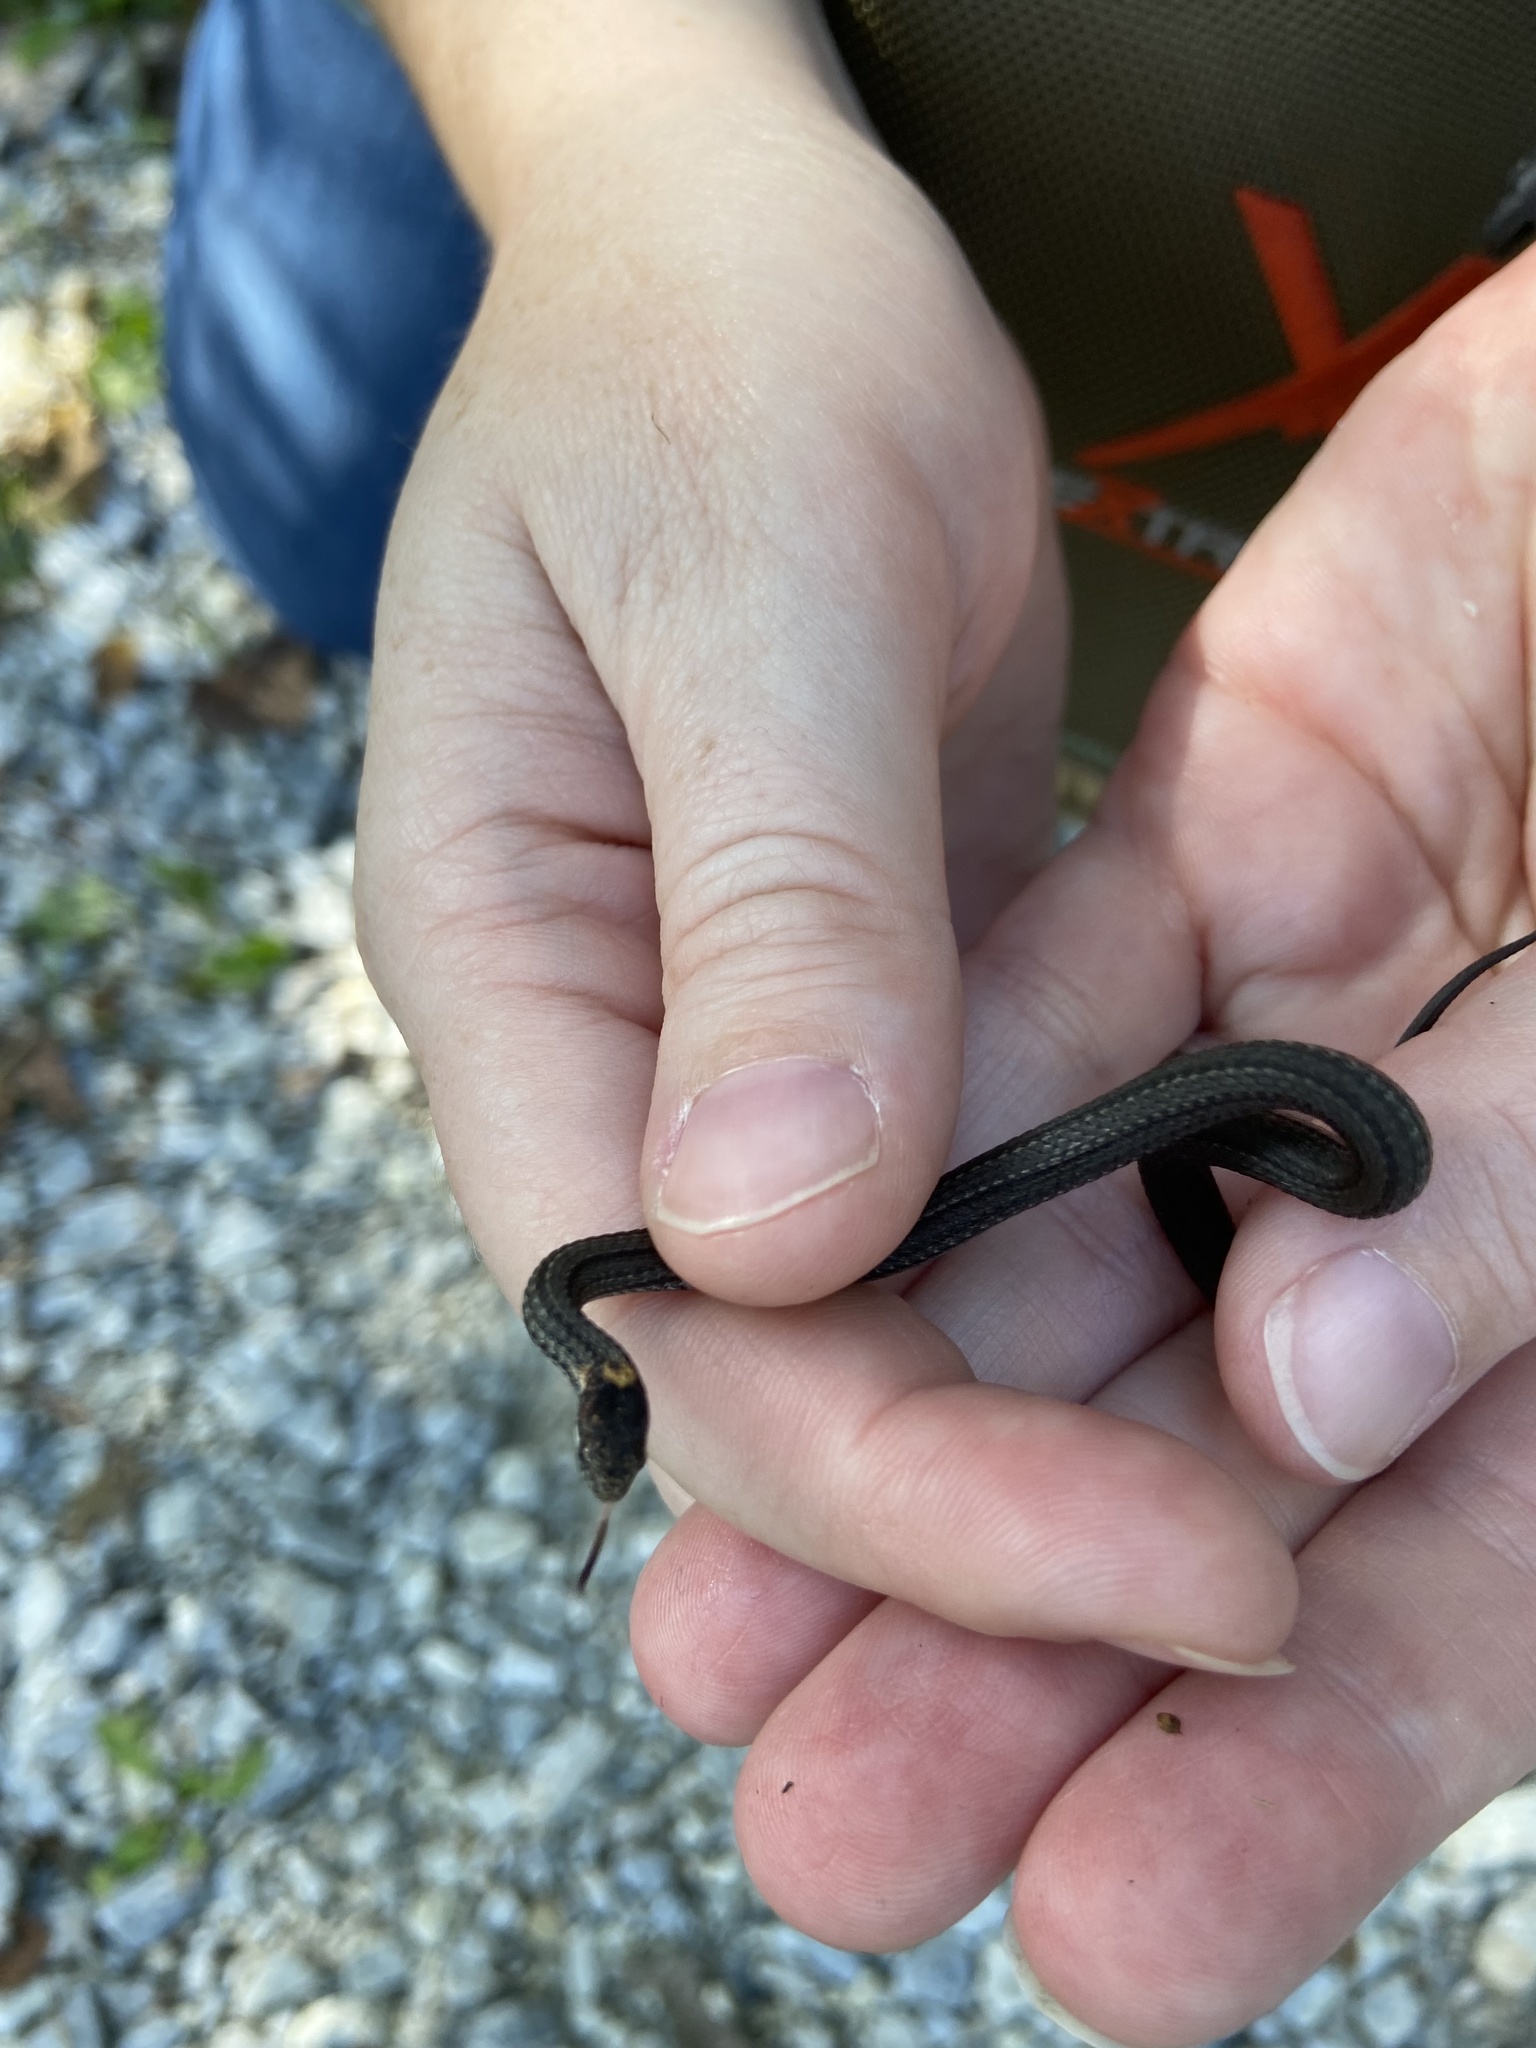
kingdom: Animalia
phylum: Chordata
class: Squamata
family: Colubridae
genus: Storeria
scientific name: Storeria occipitomaculata
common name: Redbelly snake
